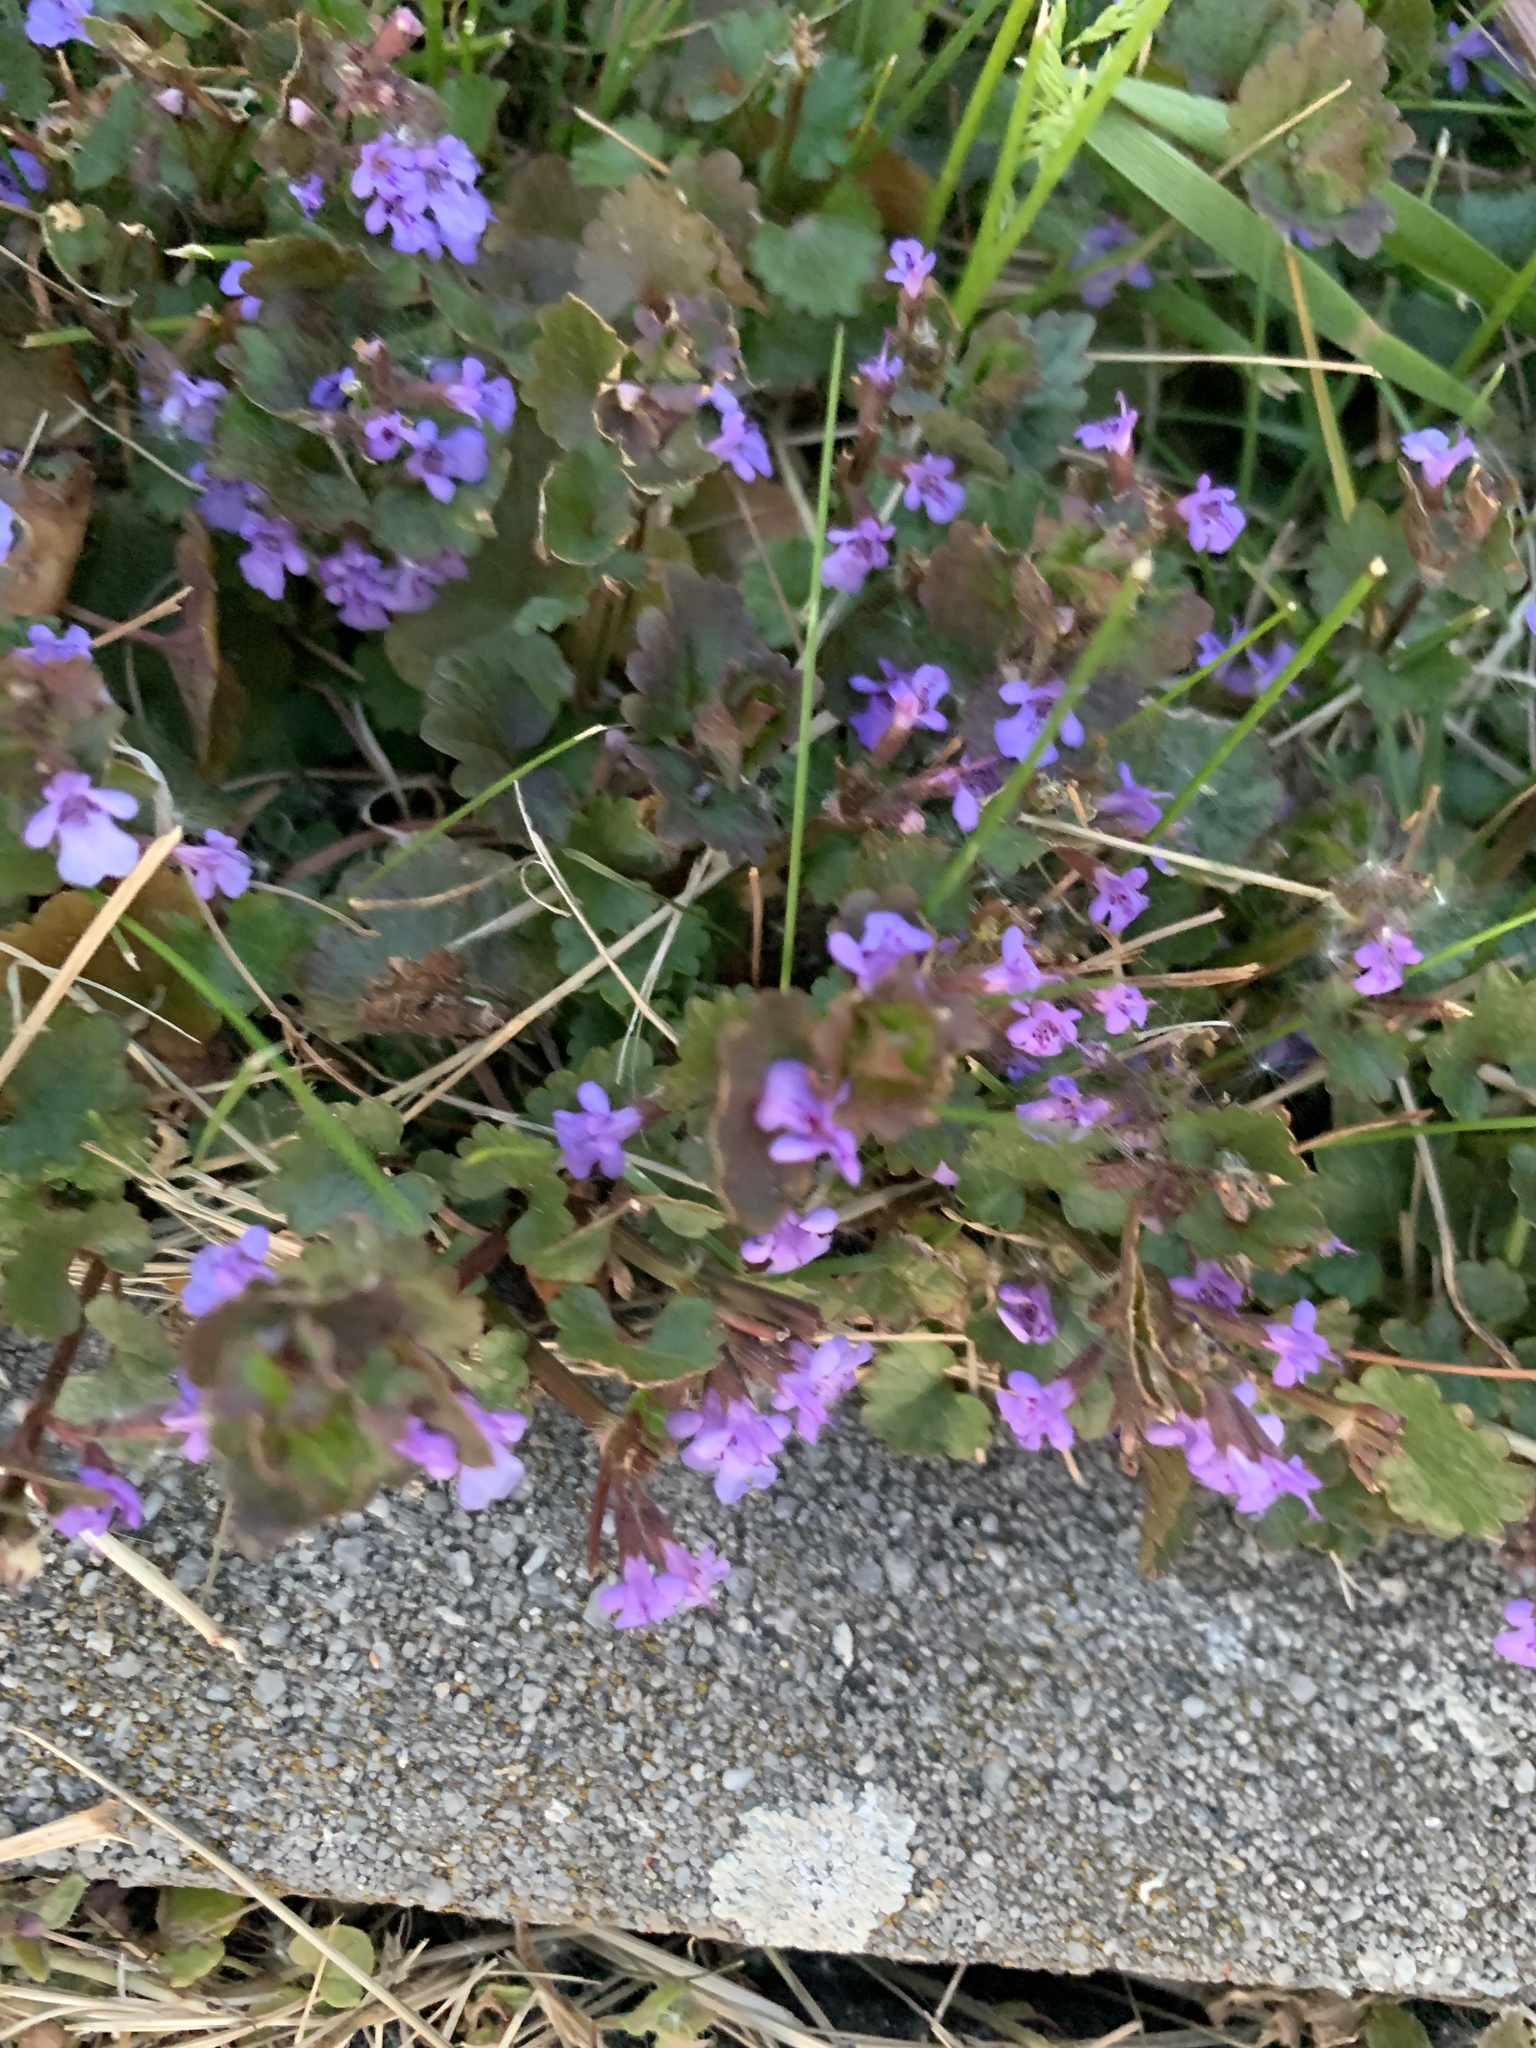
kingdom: Plantae
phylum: Tracheophyta
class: Magnoliopsida
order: Lamiales
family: Lamiaceae
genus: Glechoma
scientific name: Glechoma hederacea
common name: Ground ivy
